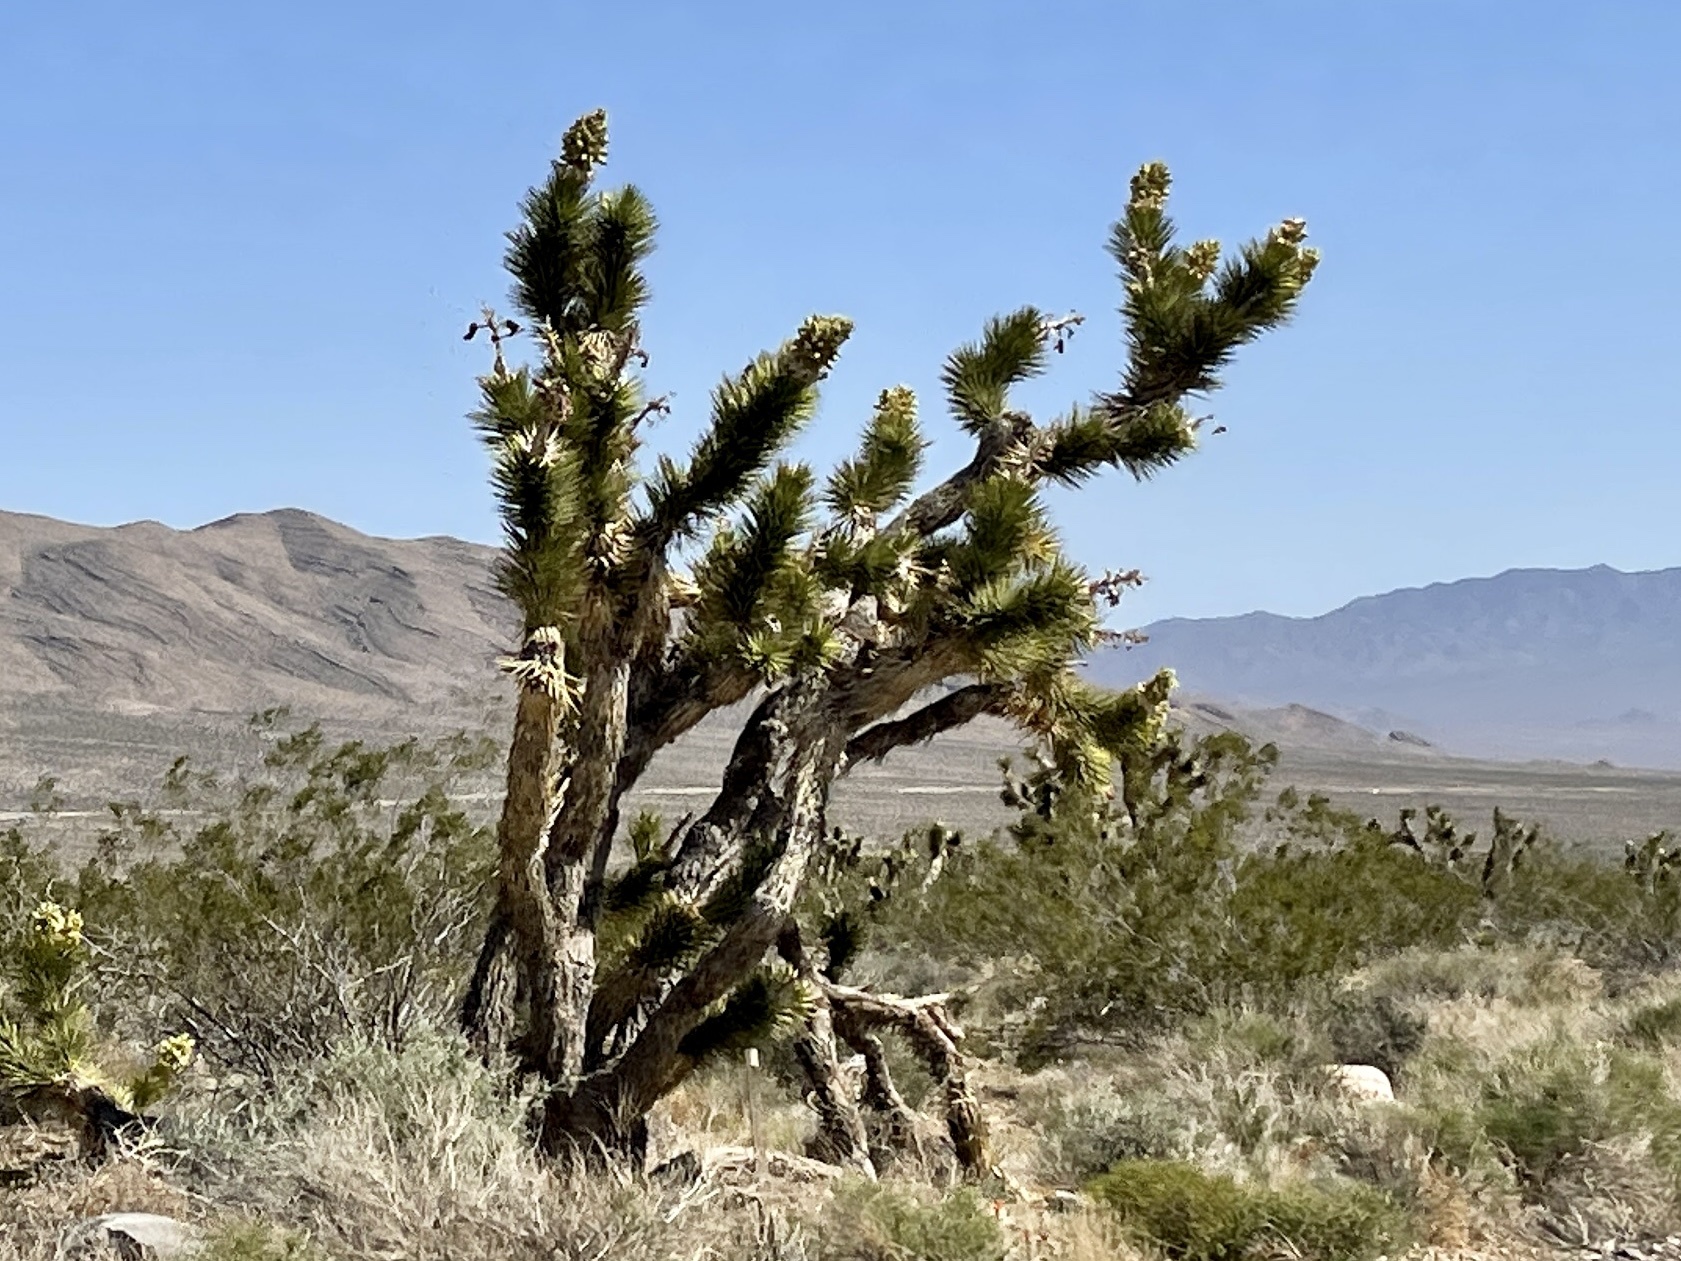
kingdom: Plantae
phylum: Tracheophyta
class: Liliopsida
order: Asparagales
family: Asparagaceae
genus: Yucca
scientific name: Yucca brevifolia
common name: Joshua tree
